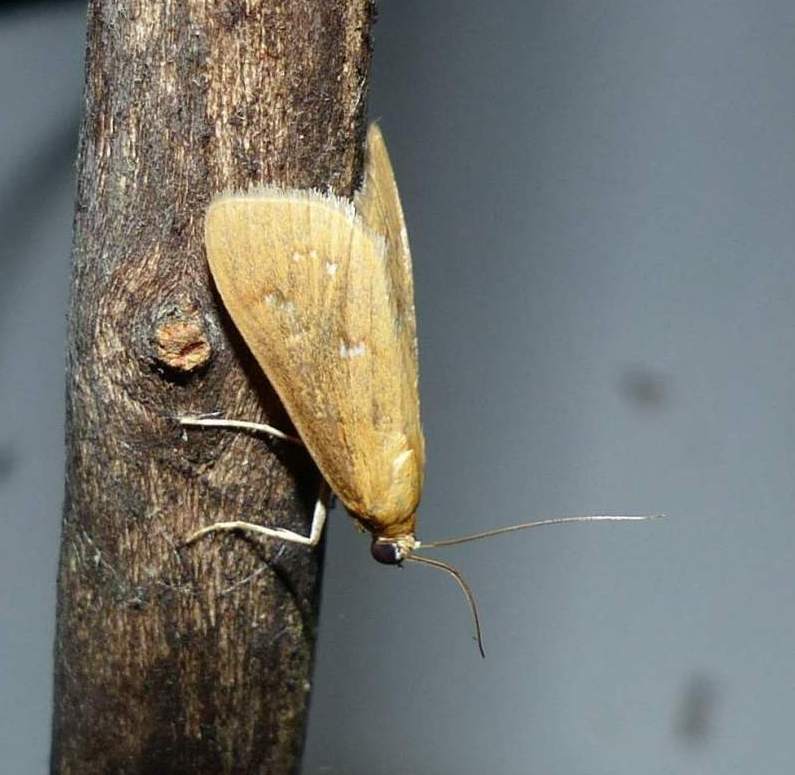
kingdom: Animalia
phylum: Arthropoda
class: Insecta
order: Lepidoptera
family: Crambidae
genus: Diastictis
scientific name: Diastictis ventralis
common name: White-spotted brown
